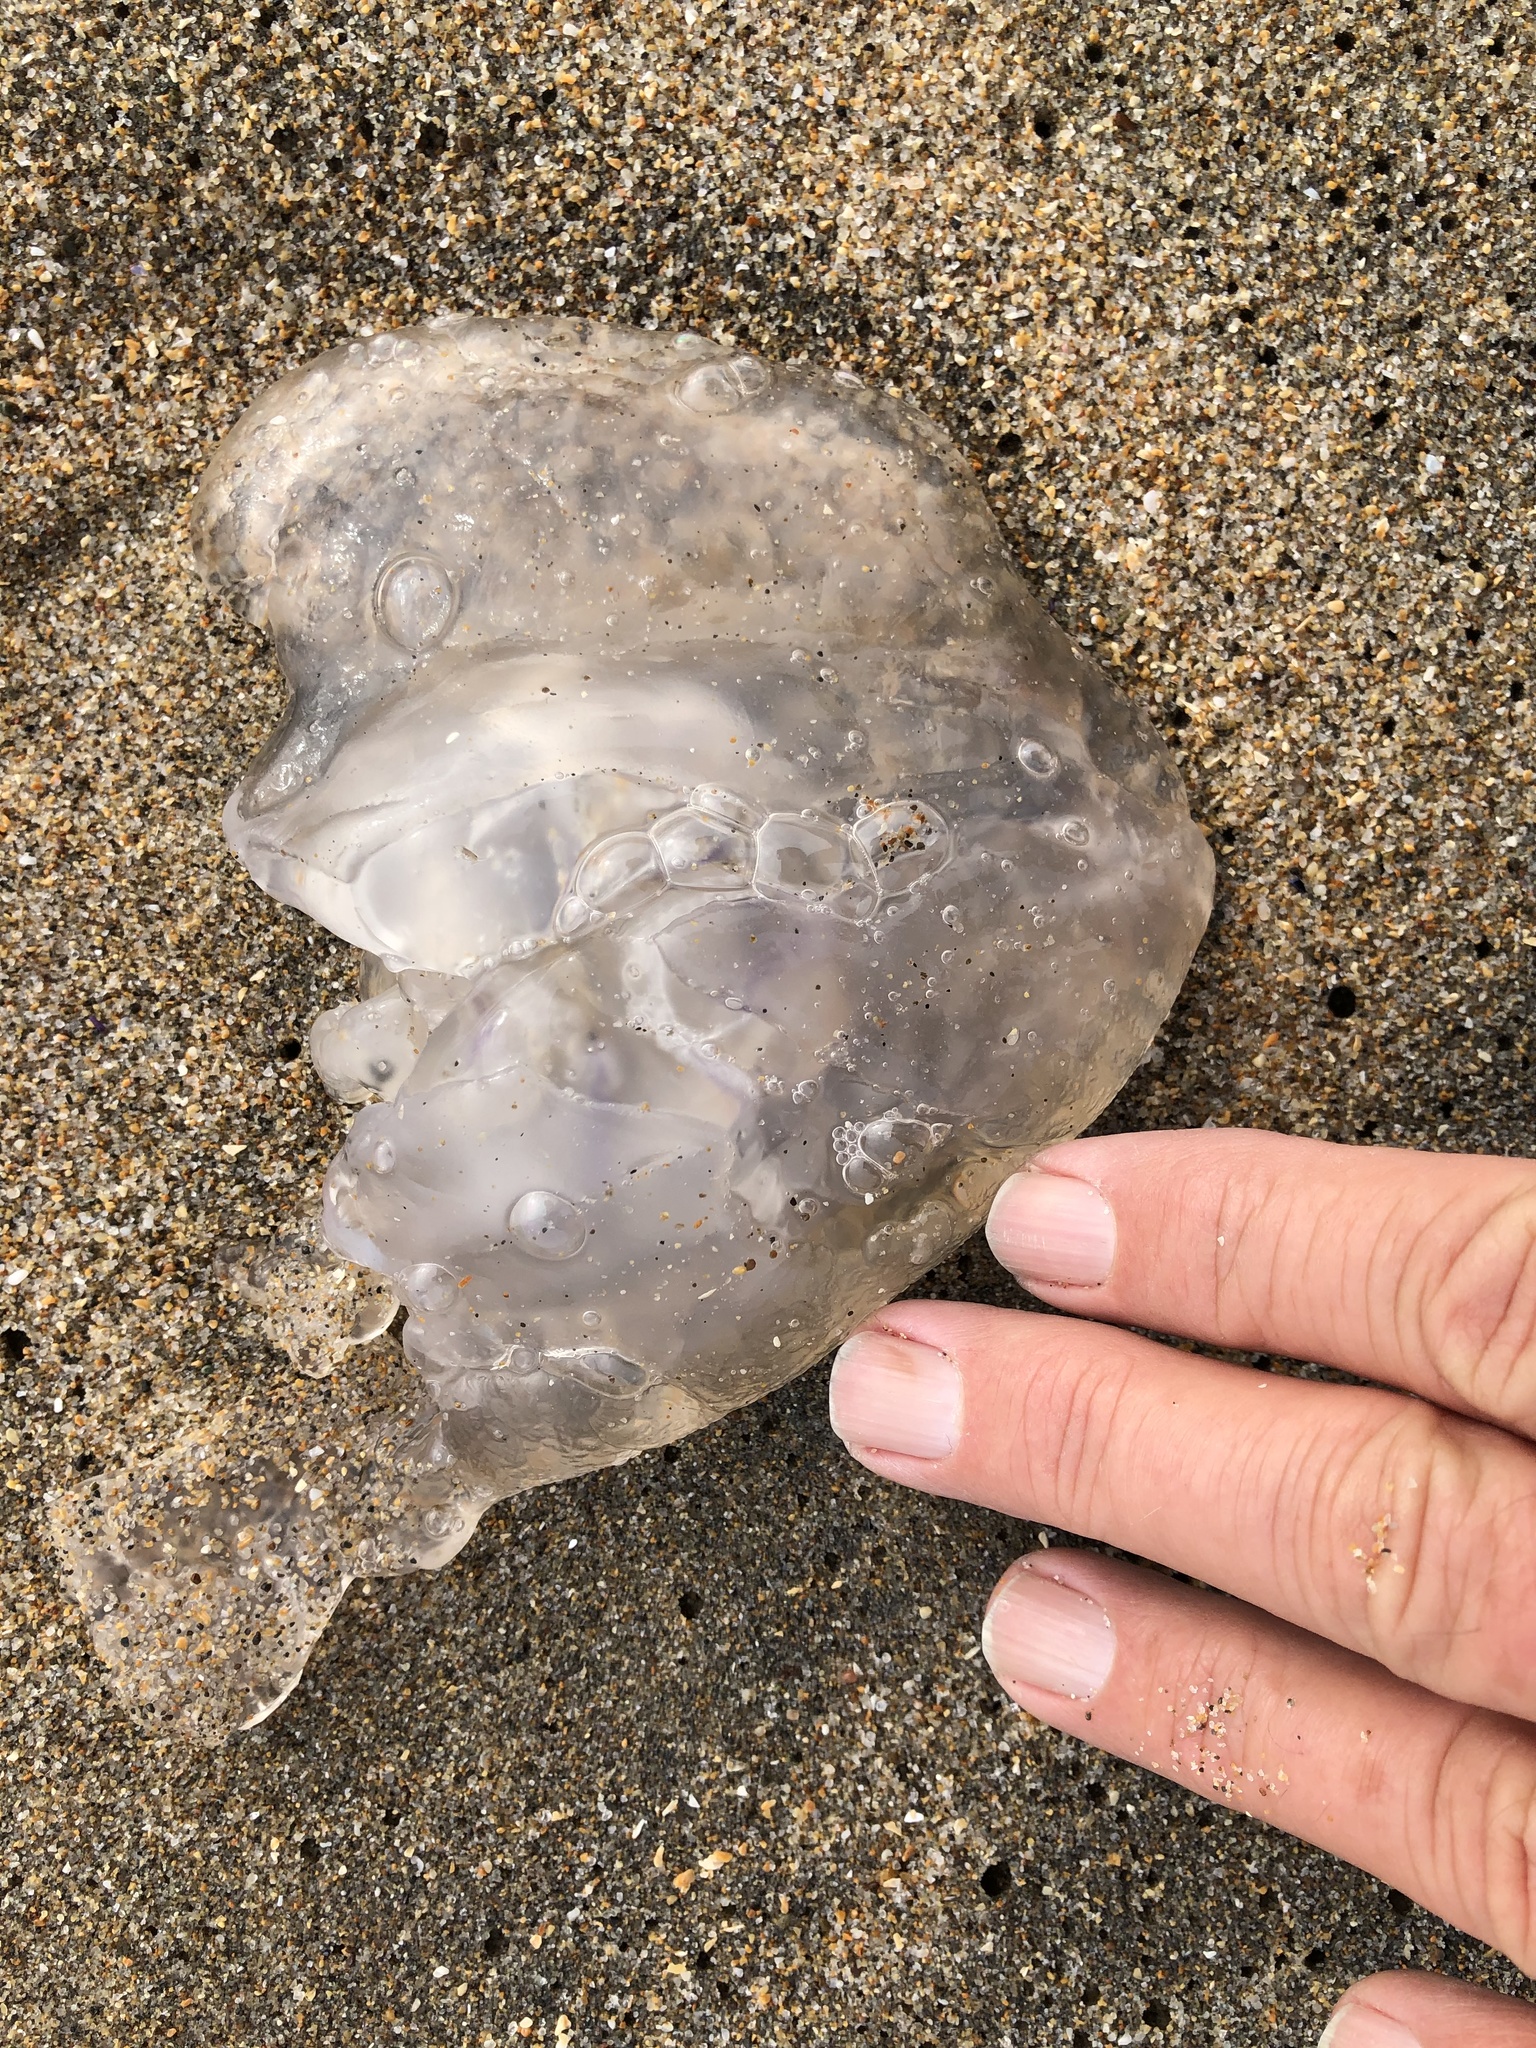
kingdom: Animalia
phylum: Cnidaria
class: Scyphozoa
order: Semaeostomeae
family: Ulmaridae
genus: Aurelia
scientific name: Aurelia labiata
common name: Pacific moon jelly
